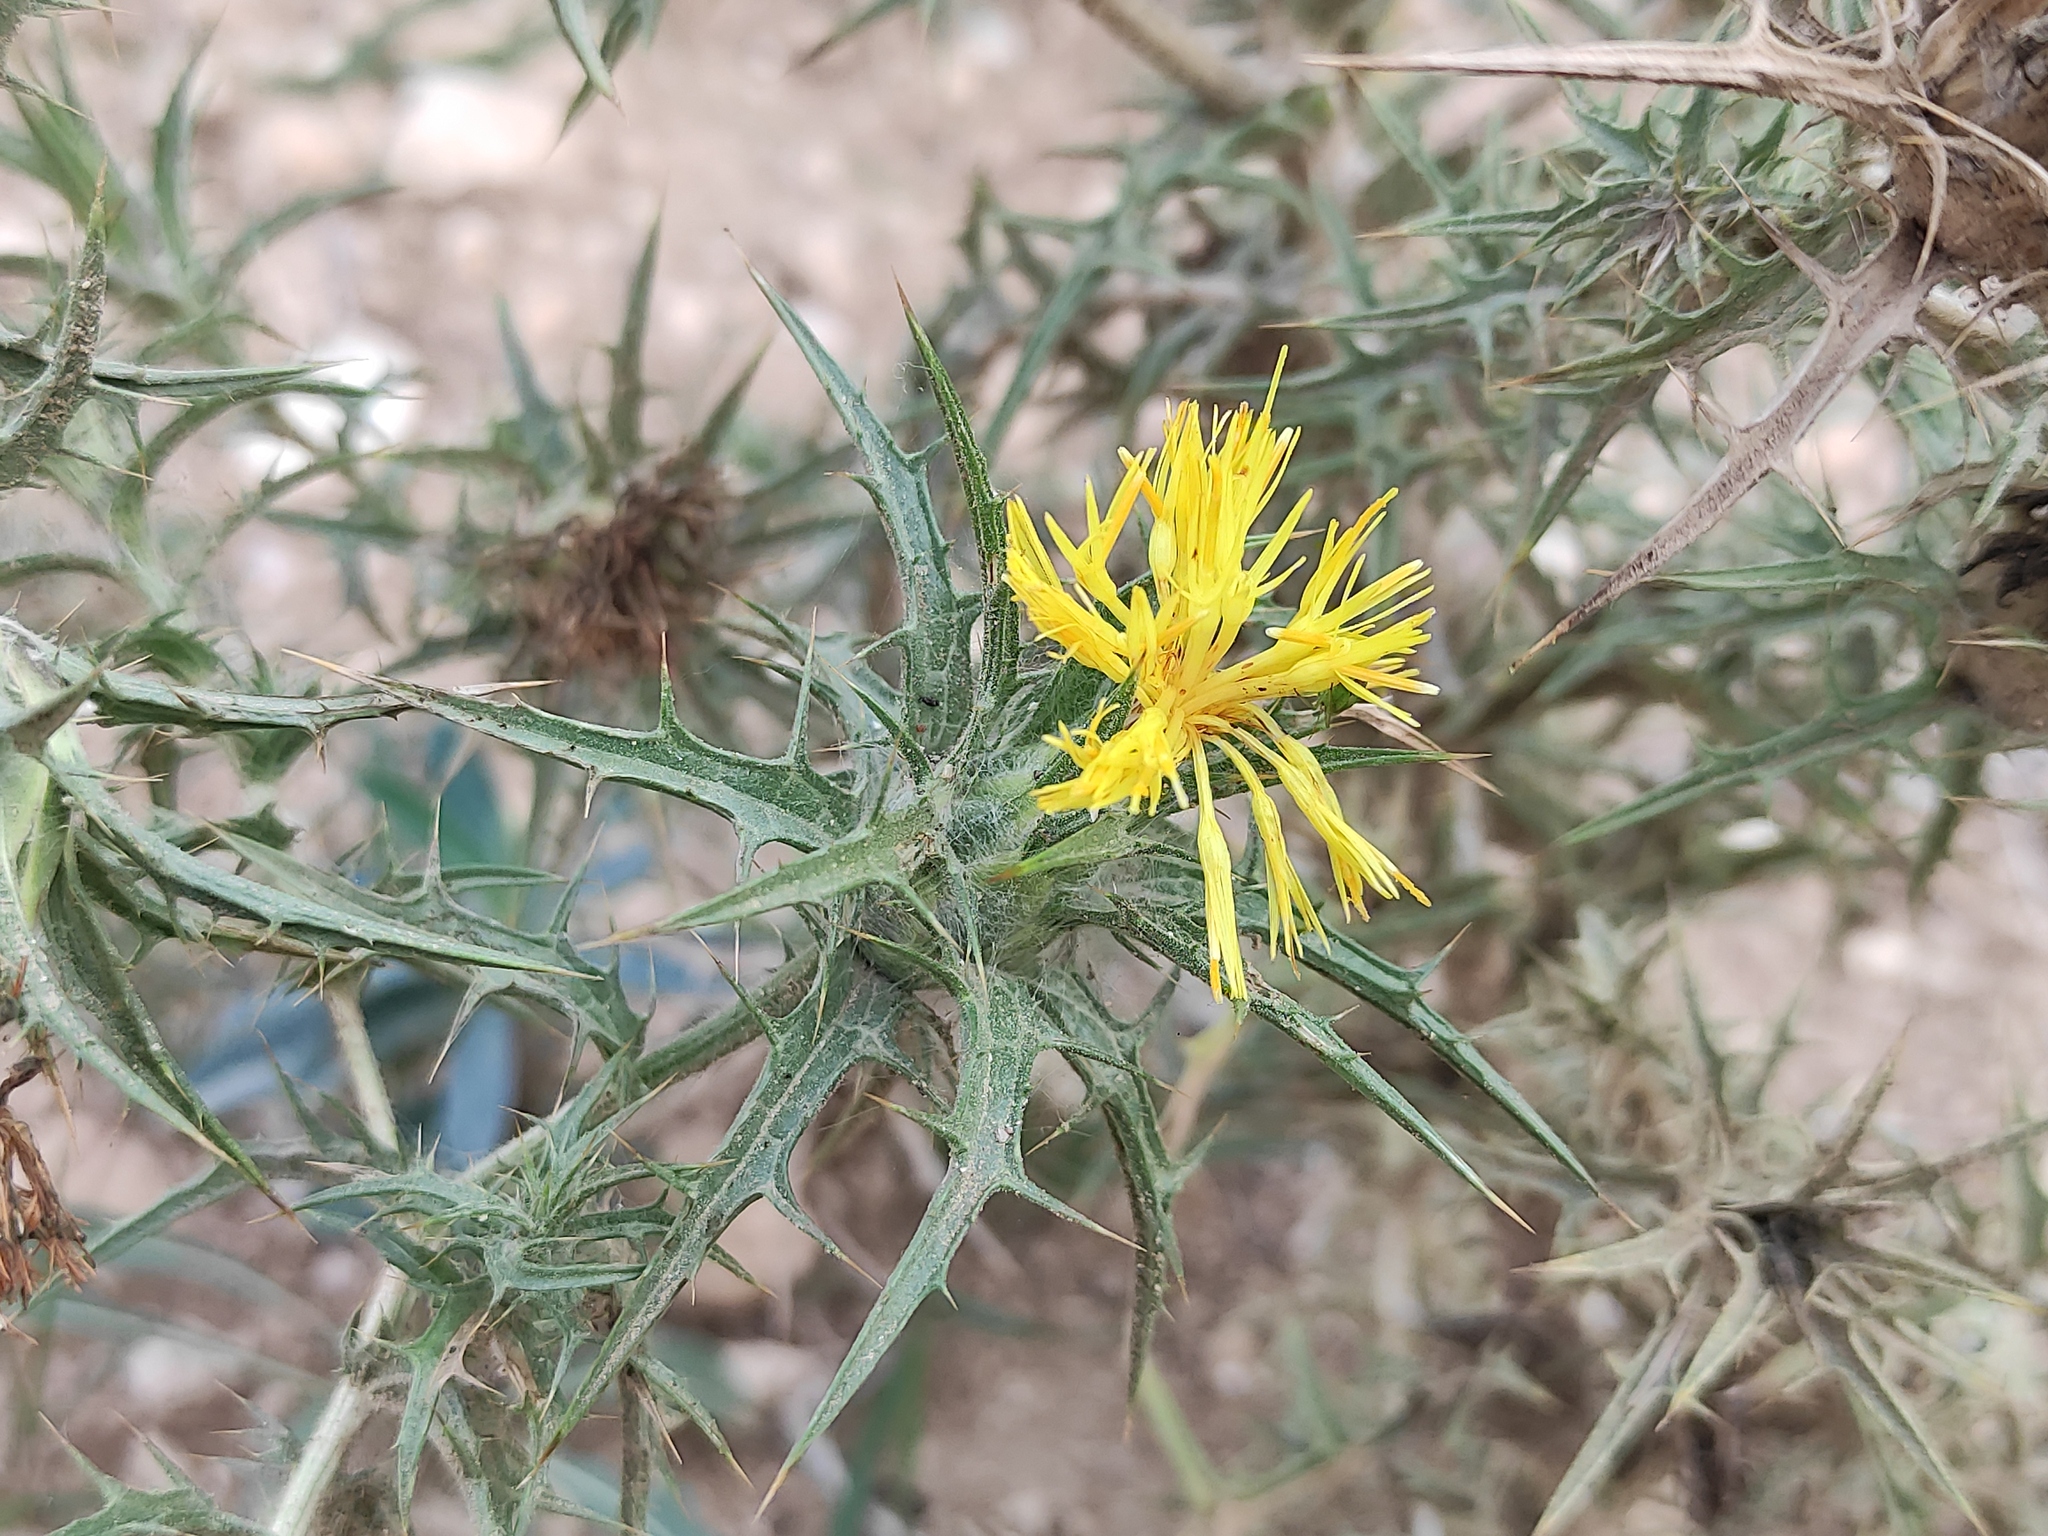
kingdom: Plantae
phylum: Tracheophyta
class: Magnoliopsida
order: Asterales
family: Asteraceae
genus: Carthamus
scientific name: Carthamus lanatus
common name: Downy safflower
